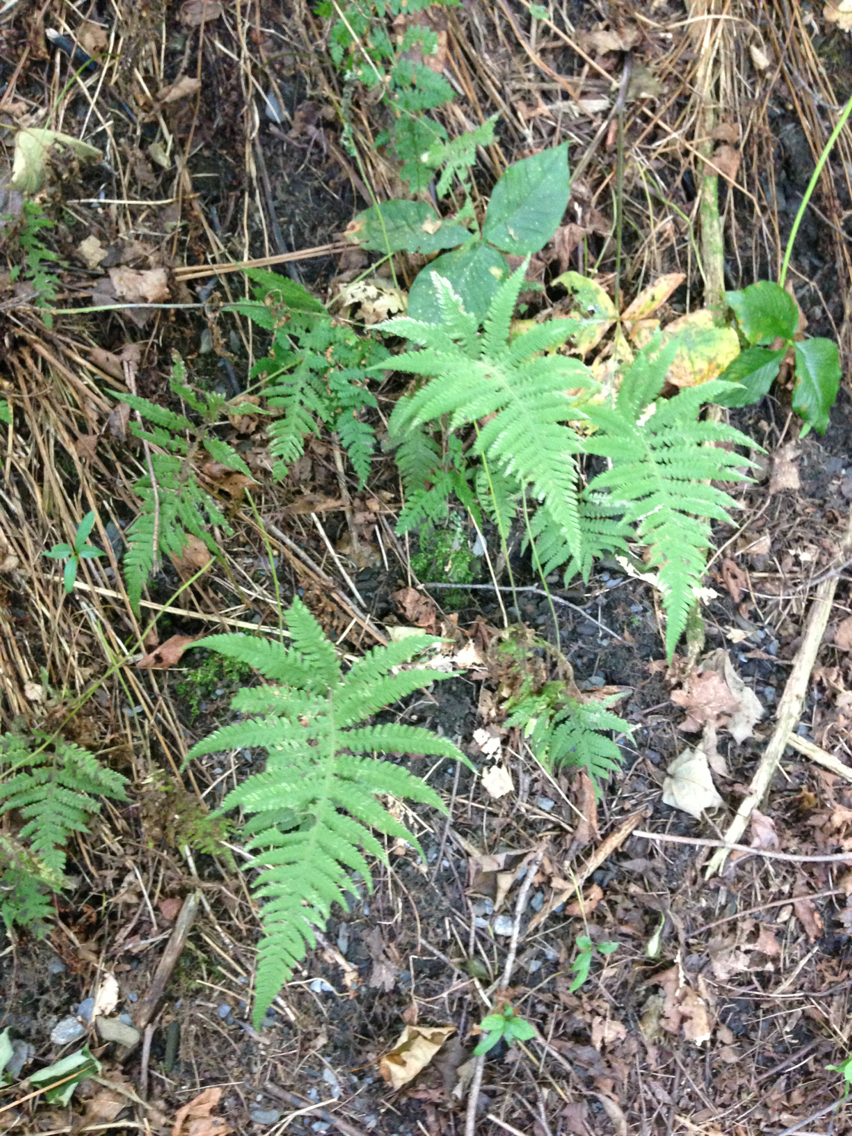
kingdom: Plantae
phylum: Tracheophyta
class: Polypodiopsida
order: Polypodiales
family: Thelypteridaceae
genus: Phegopteris
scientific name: Phegopteris connectilis
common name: Beech fern
